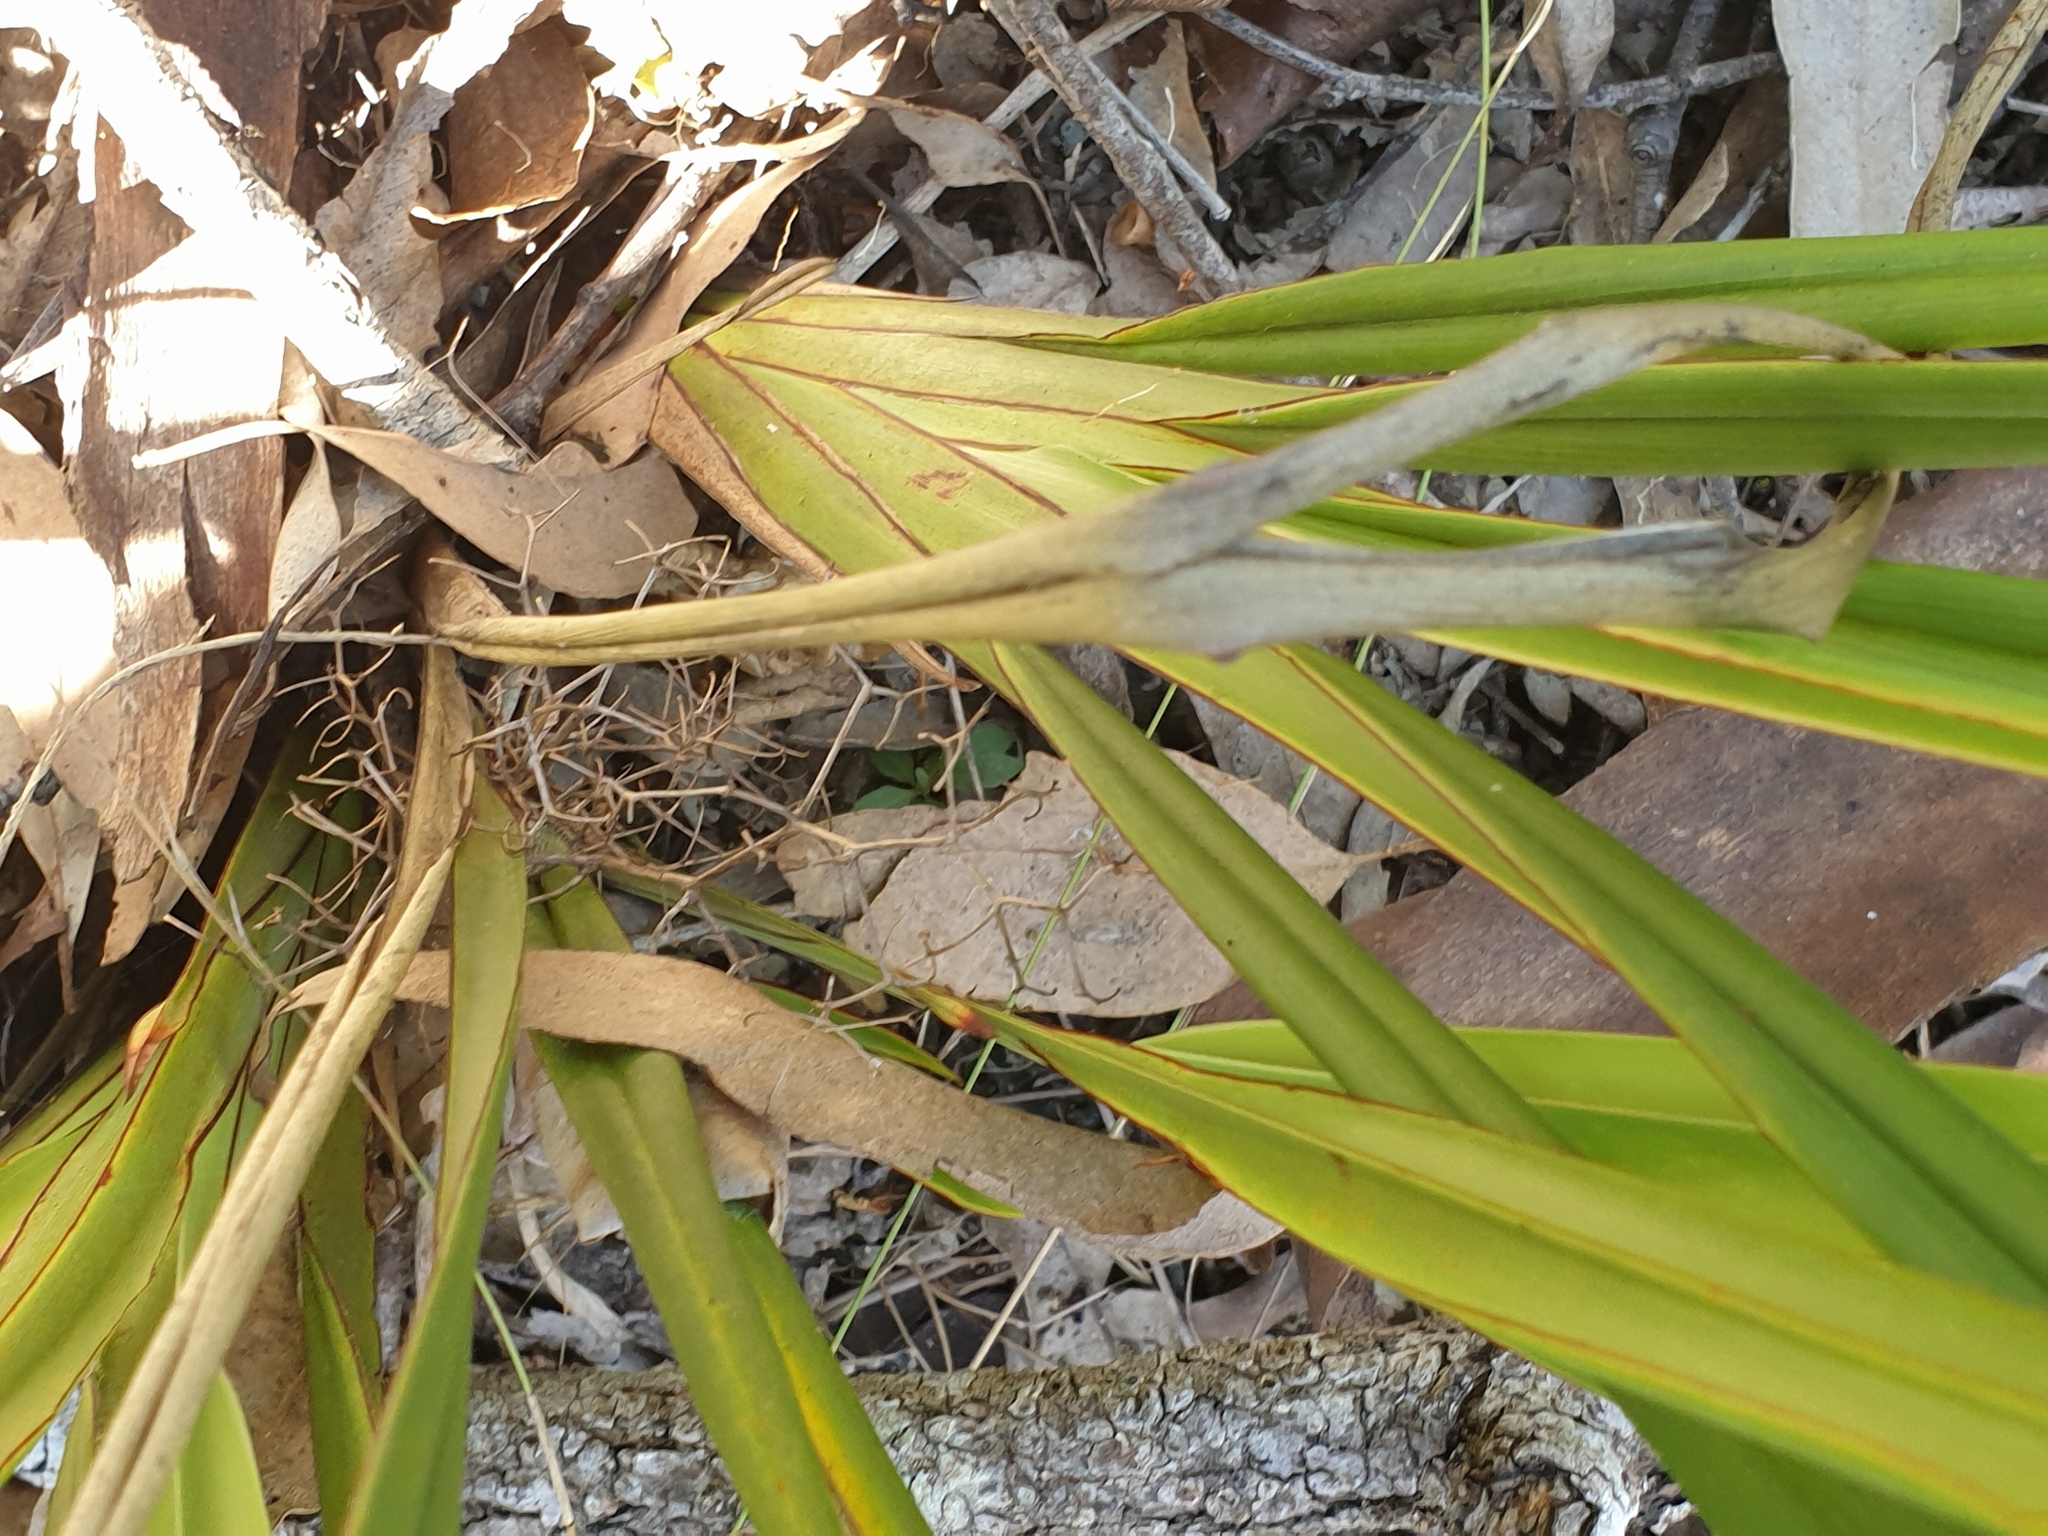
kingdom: Plantae
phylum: Tracheophyta
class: Liliopsida
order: Asparagales
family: Asphodelaceae
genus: Dianella
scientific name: Dianella brevipedunculata
